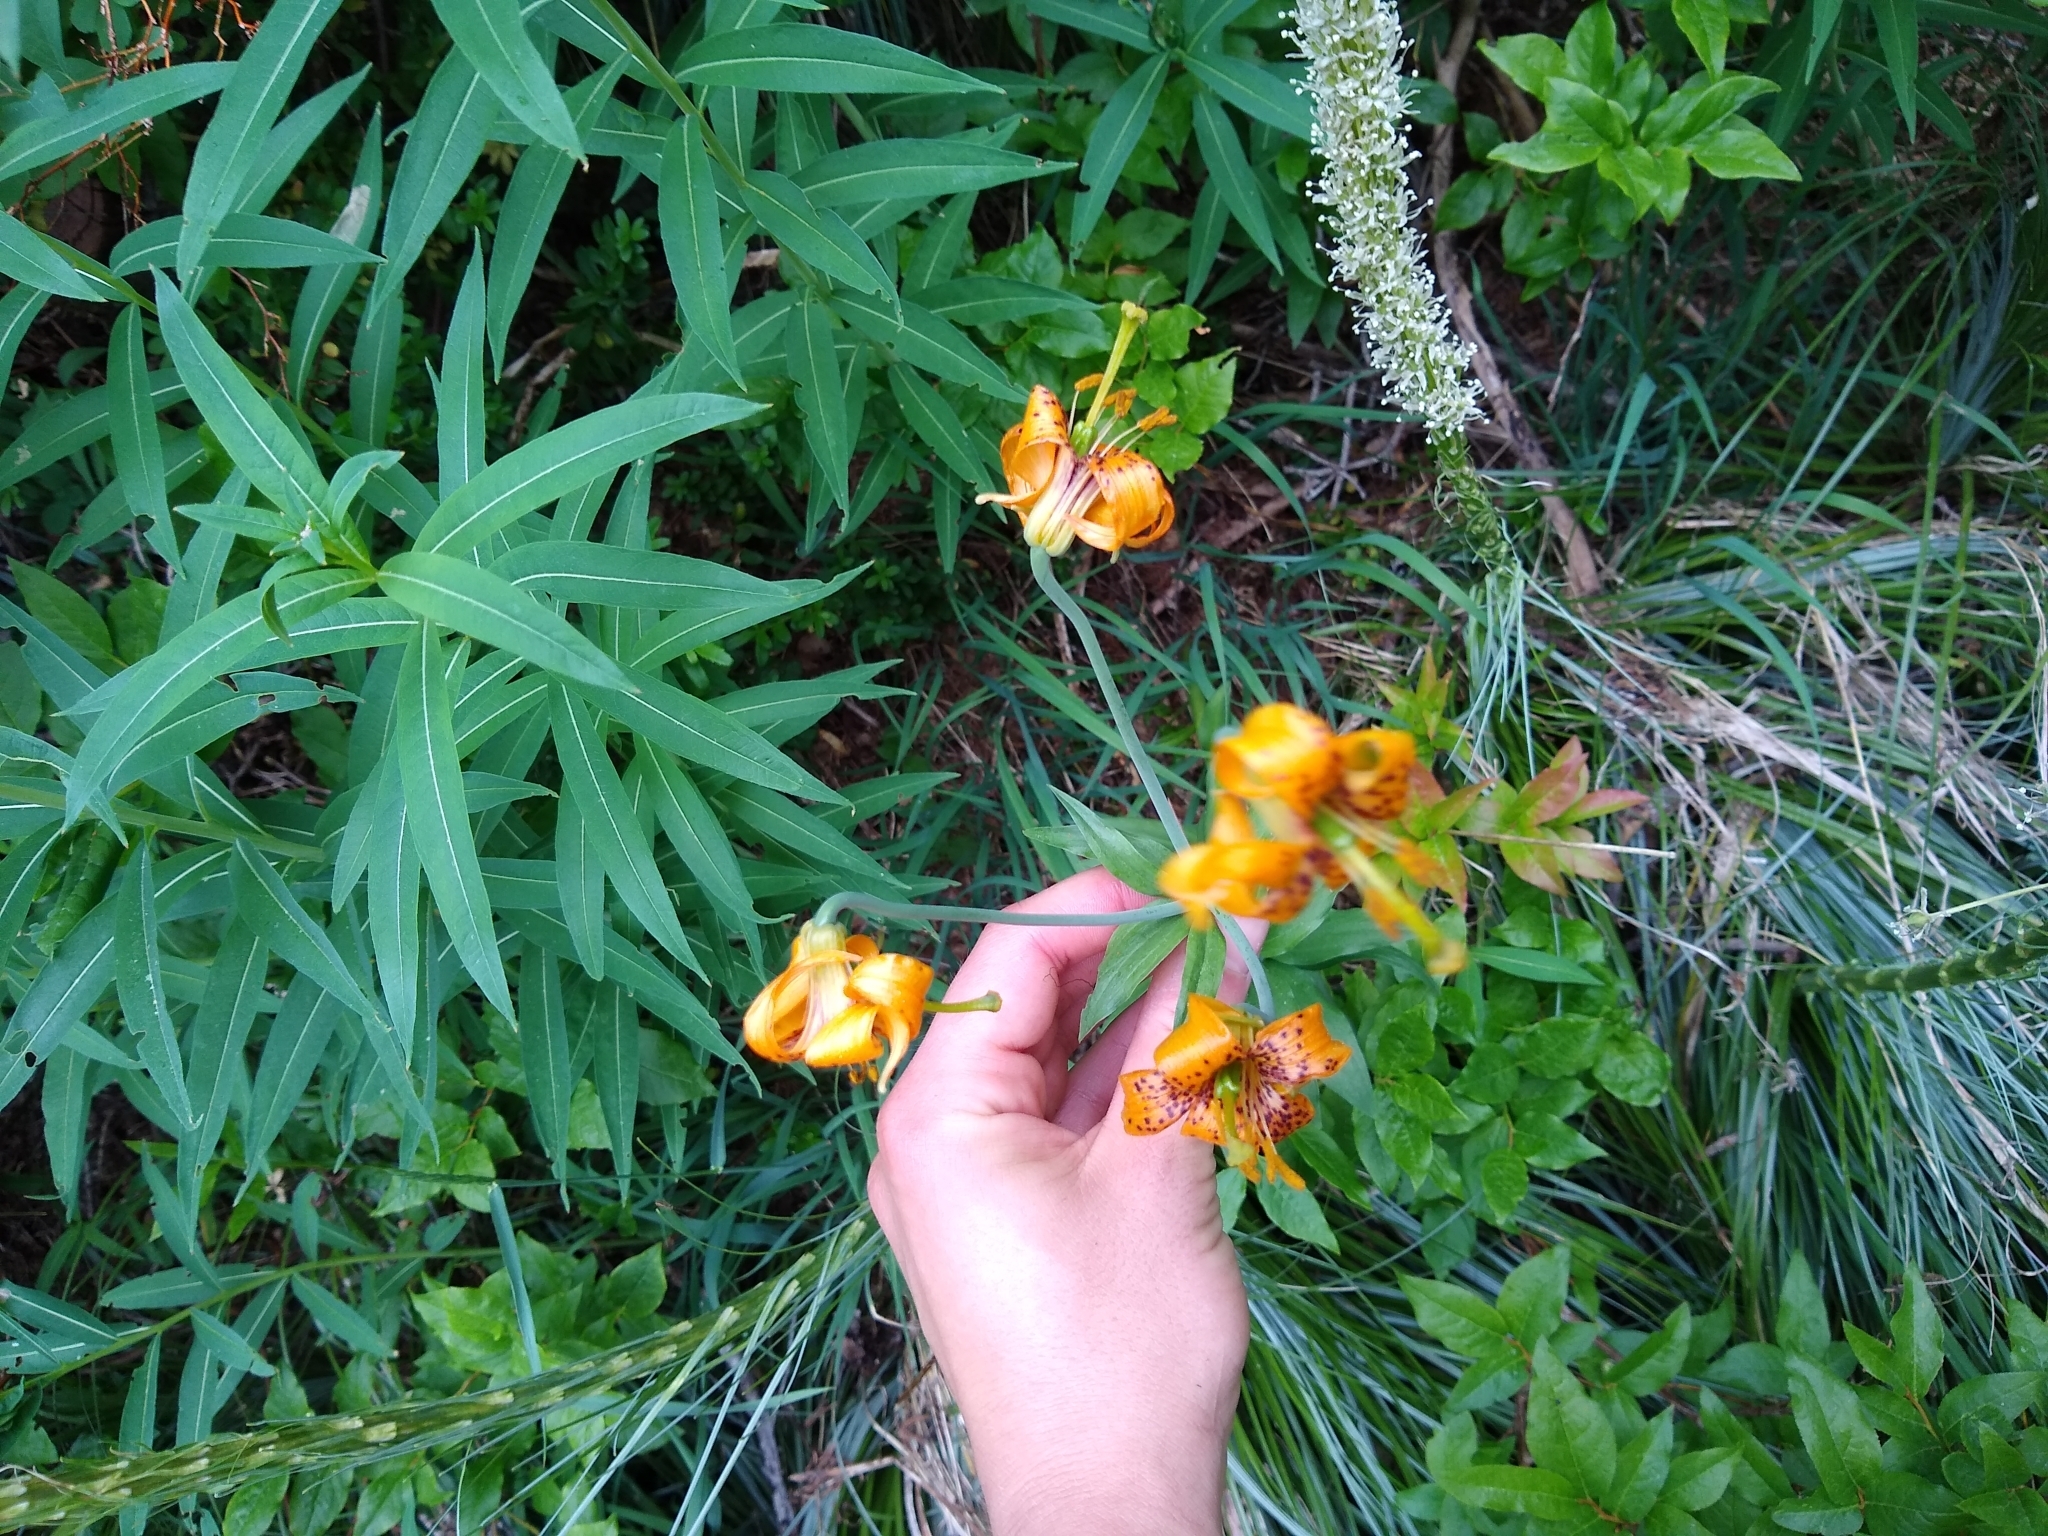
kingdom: Plantae
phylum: Tracheophyta
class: Liliopsida
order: Liliales
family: Liliaceae
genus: Lilium
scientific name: Lilium columbianum
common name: Columbia lily
